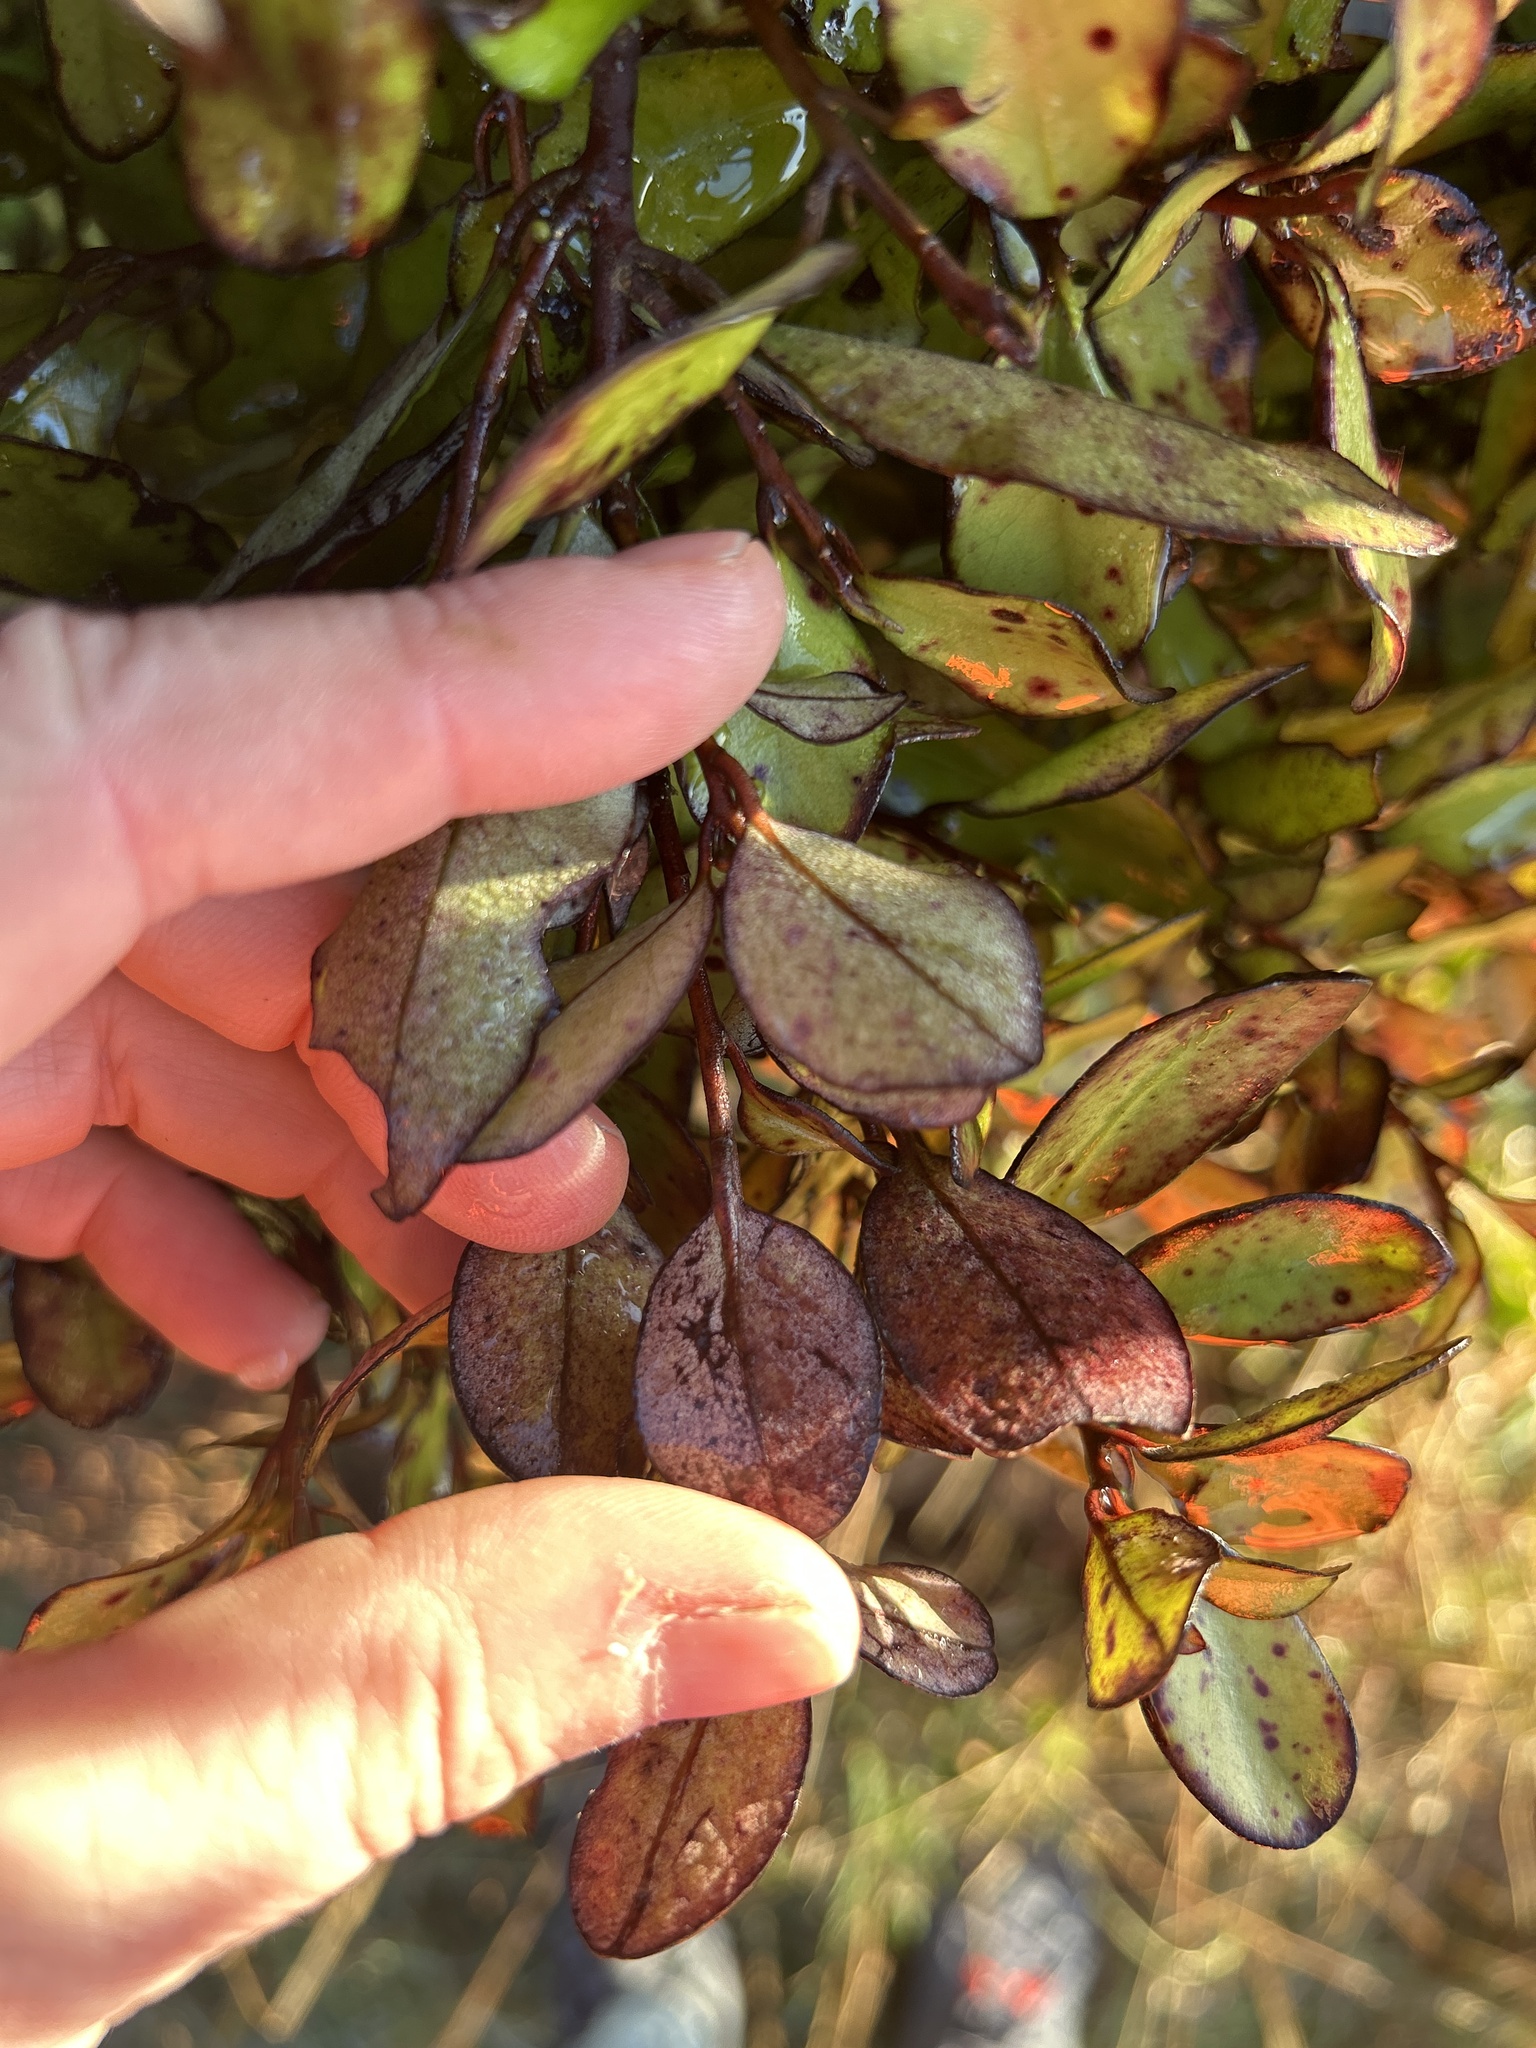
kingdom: Plantae
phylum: Tracheophyta
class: Magnoliopsida
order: Canellales
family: Winteraceae
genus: Pseudowintera
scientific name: Pseudowintera colorata
